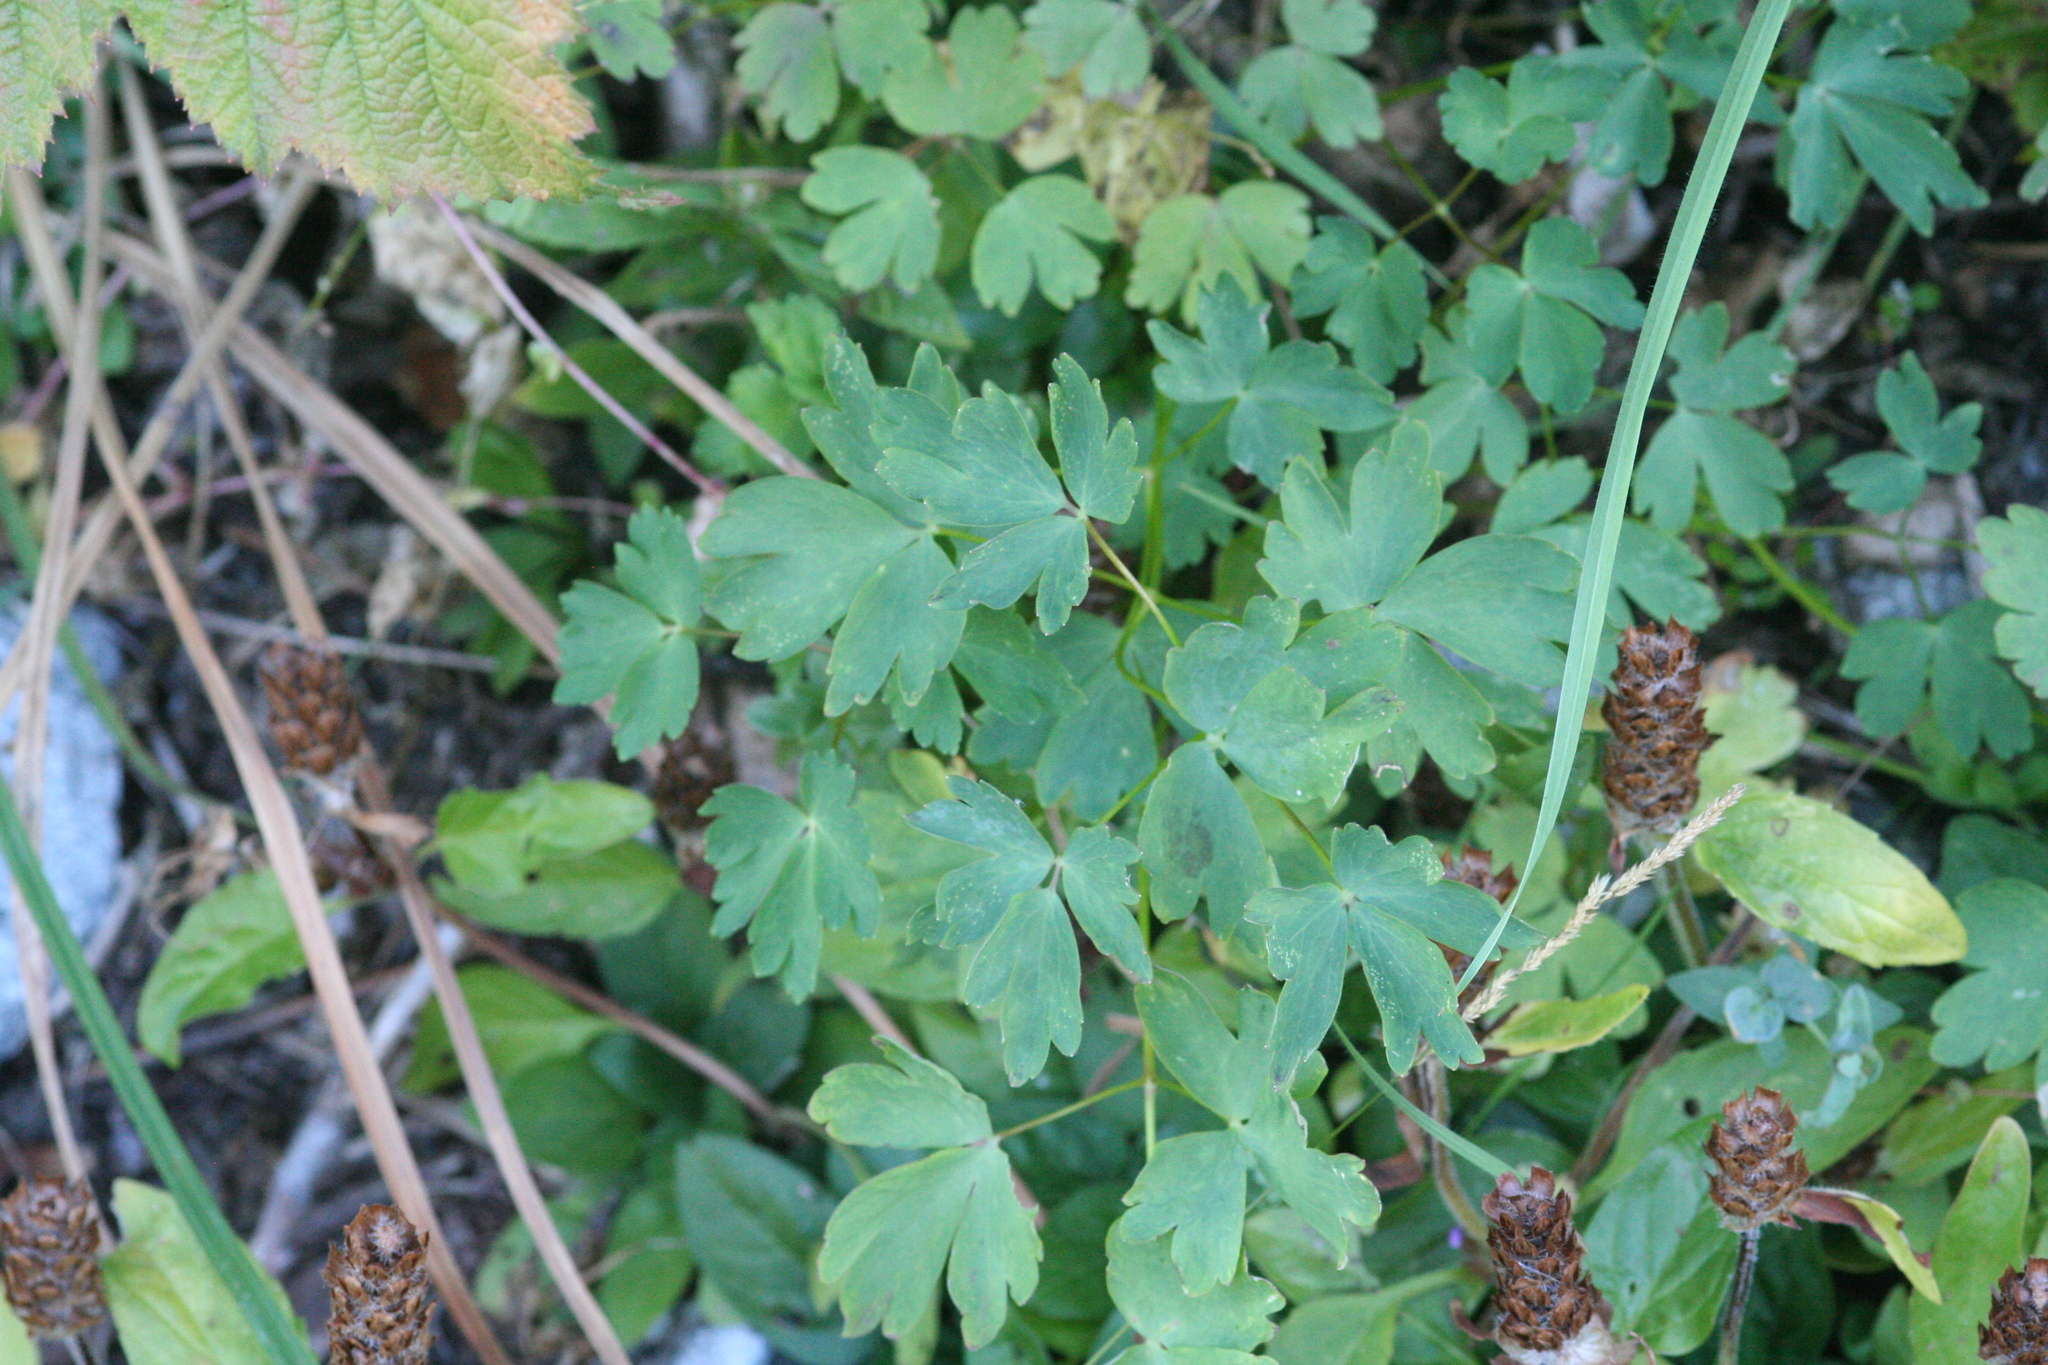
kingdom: Plantae
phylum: Tracheophyta
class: Magnoliopsida
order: Ranunculales
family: Ranunculaceae
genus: Aquilegia
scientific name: Aquilegia formosa
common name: Sitka columbine
